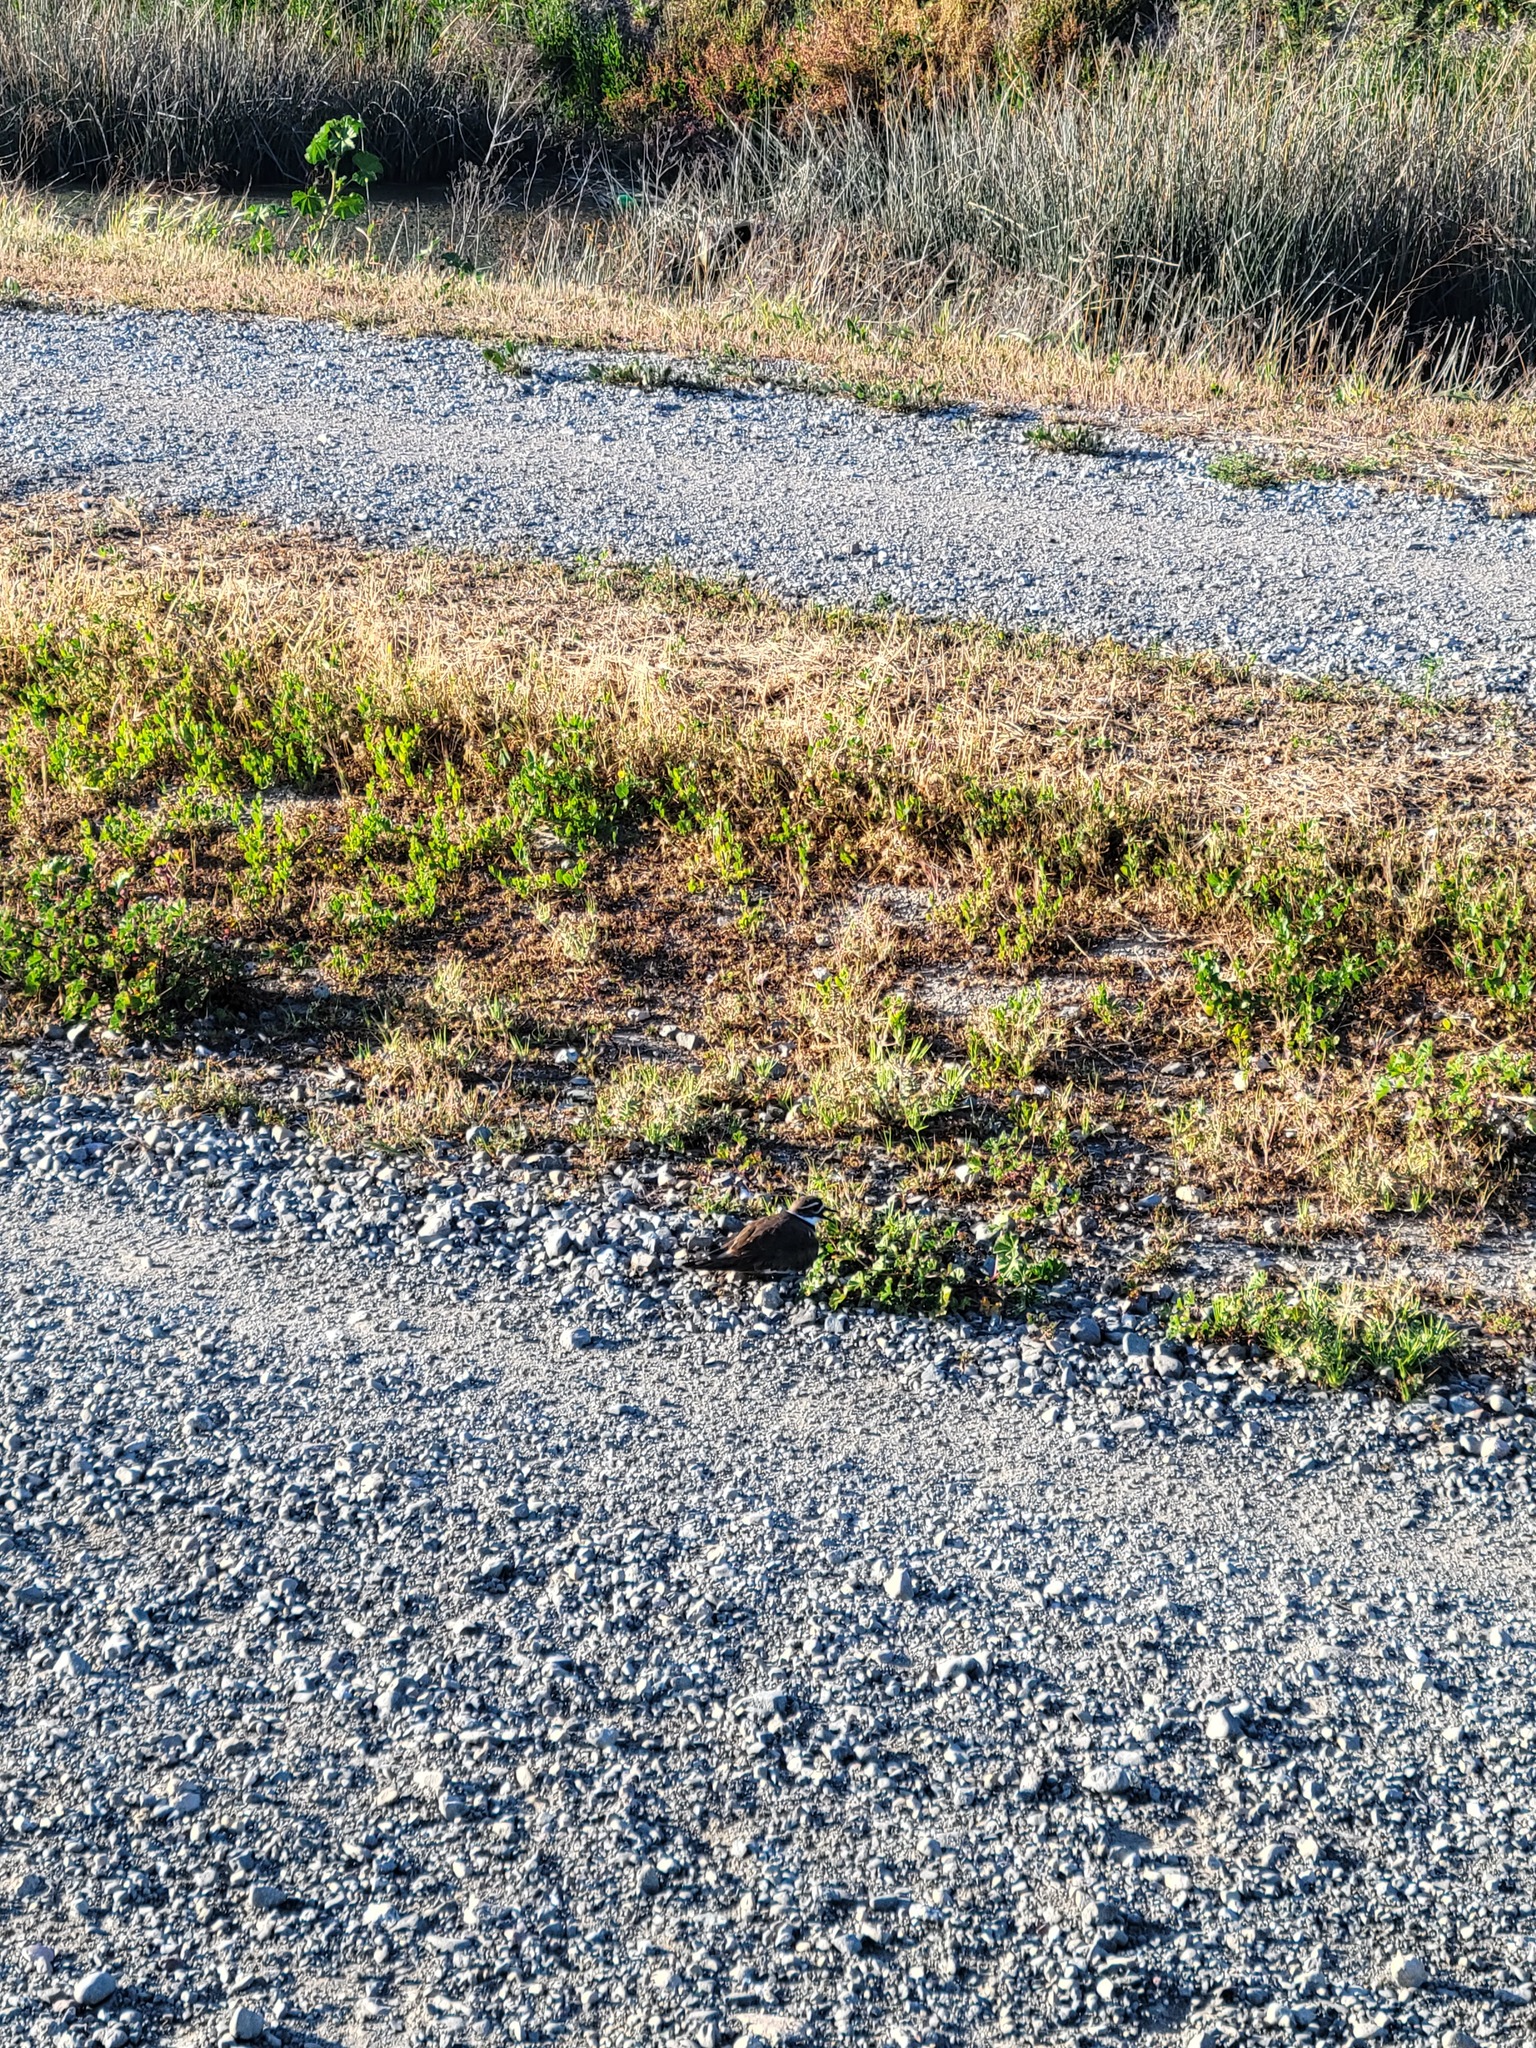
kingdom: Animalia
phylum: Chordata
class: Aves
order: Charadriiformes
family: Charadriidae
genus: Charadrius
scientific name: Charadrius vociferus
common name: Killdeer
